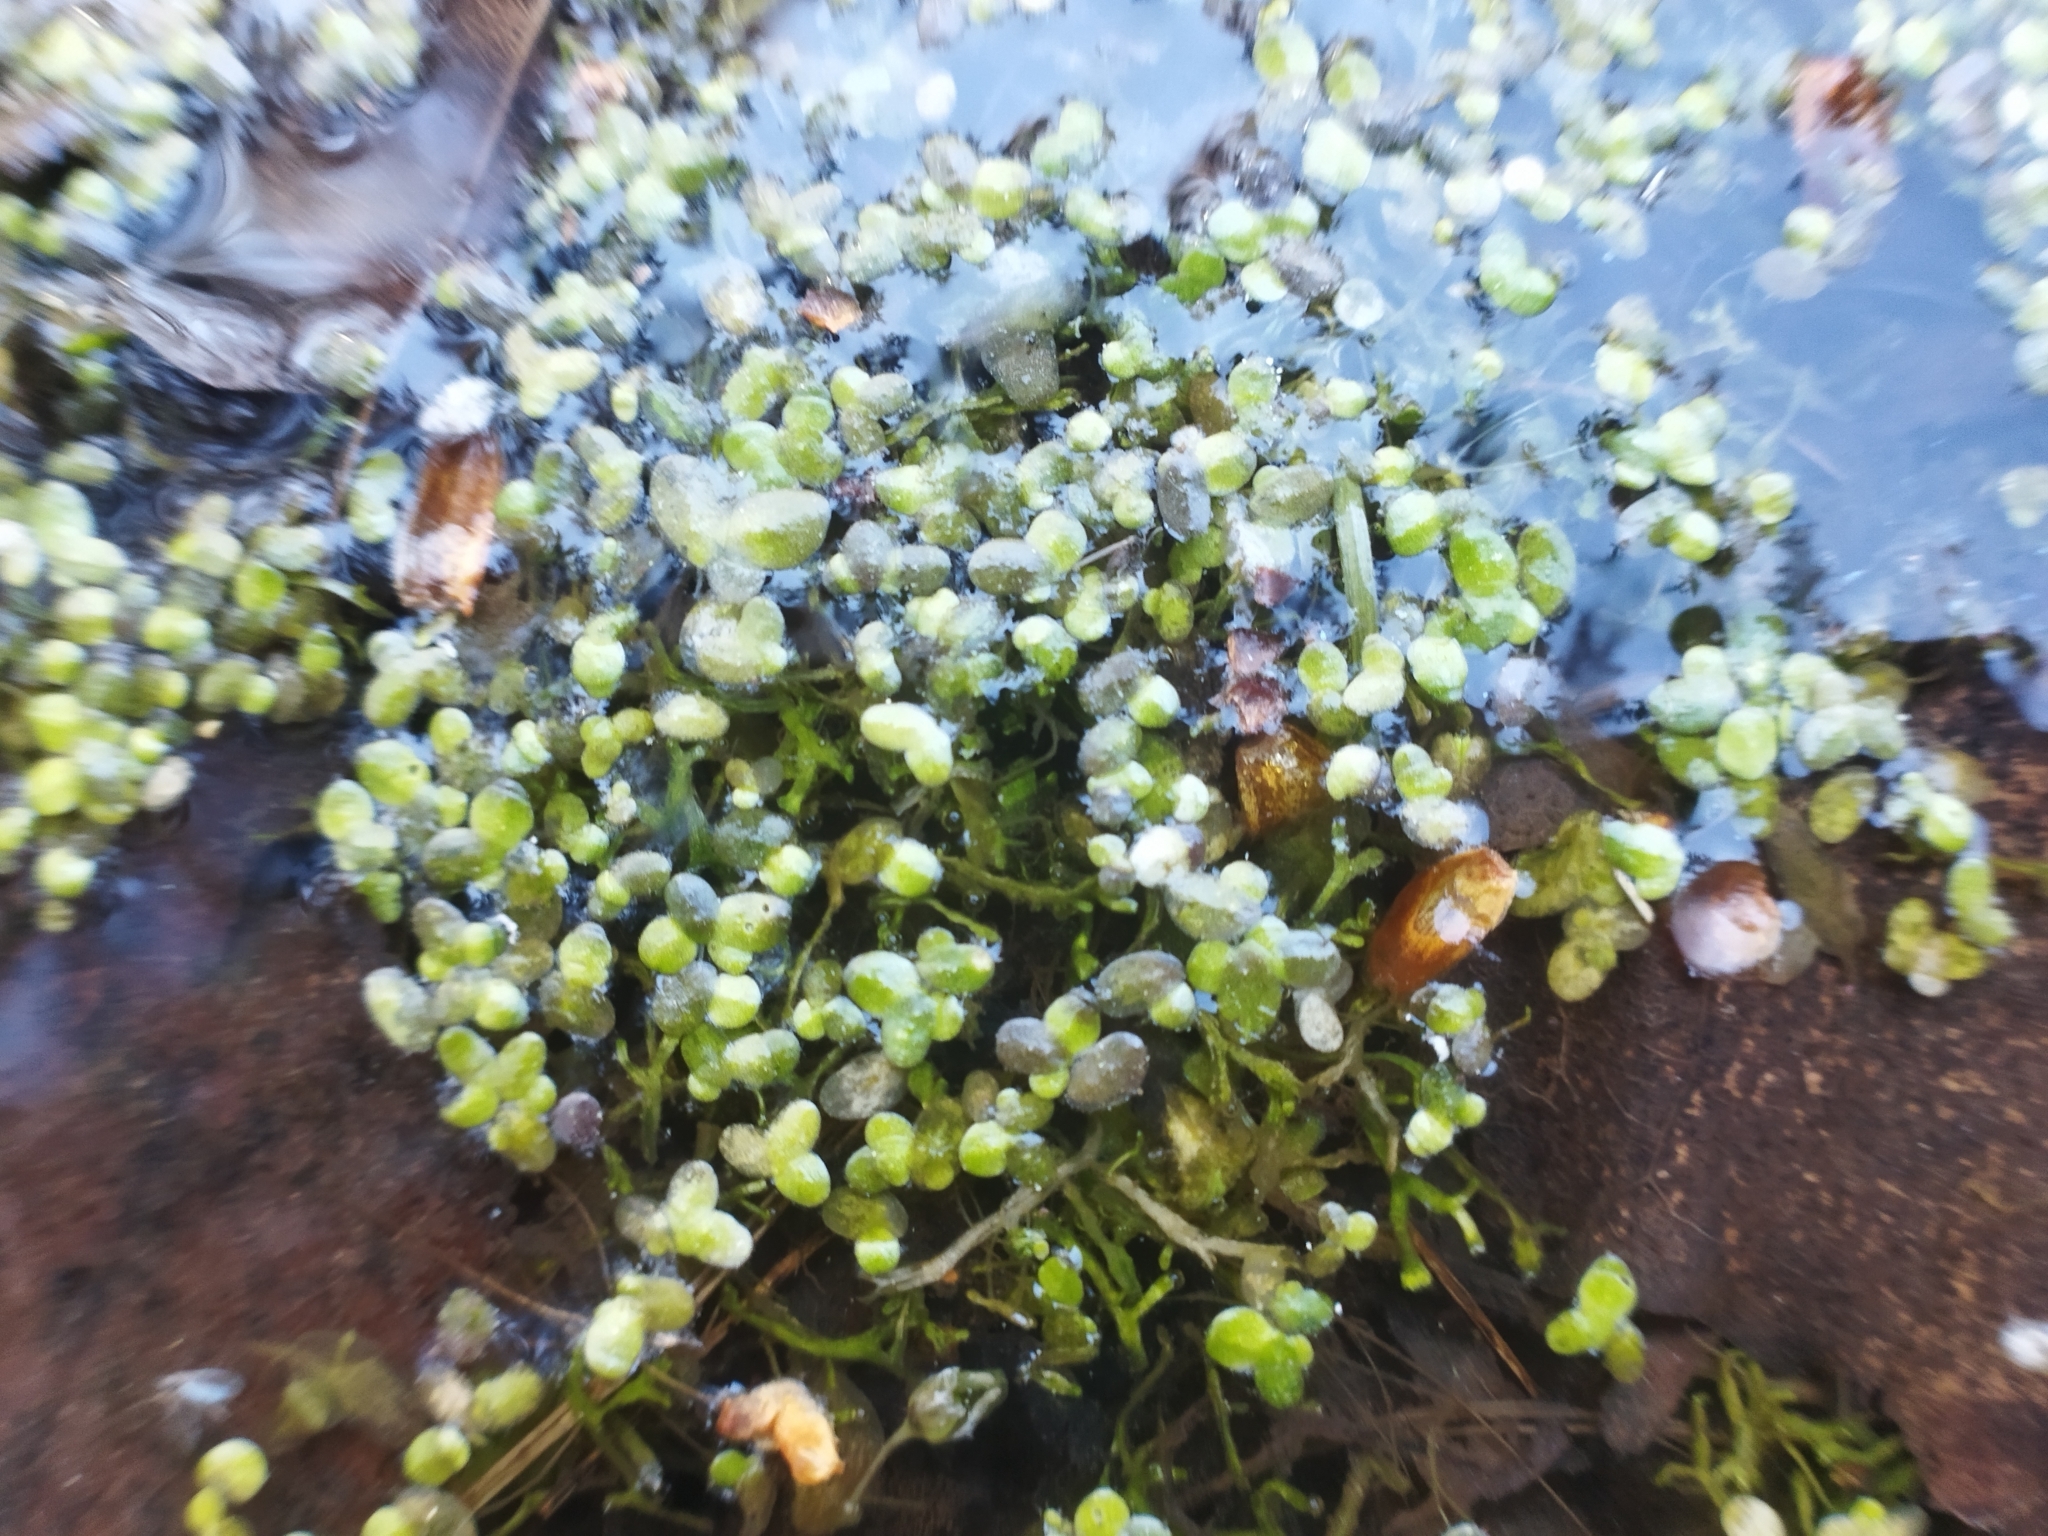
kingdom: Plantae
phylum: Tracheophyta
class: Liliopsida
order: Alismatales
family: Araceae
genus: Lemna
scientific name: Lemna turionifera
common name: Perennial duckweed
